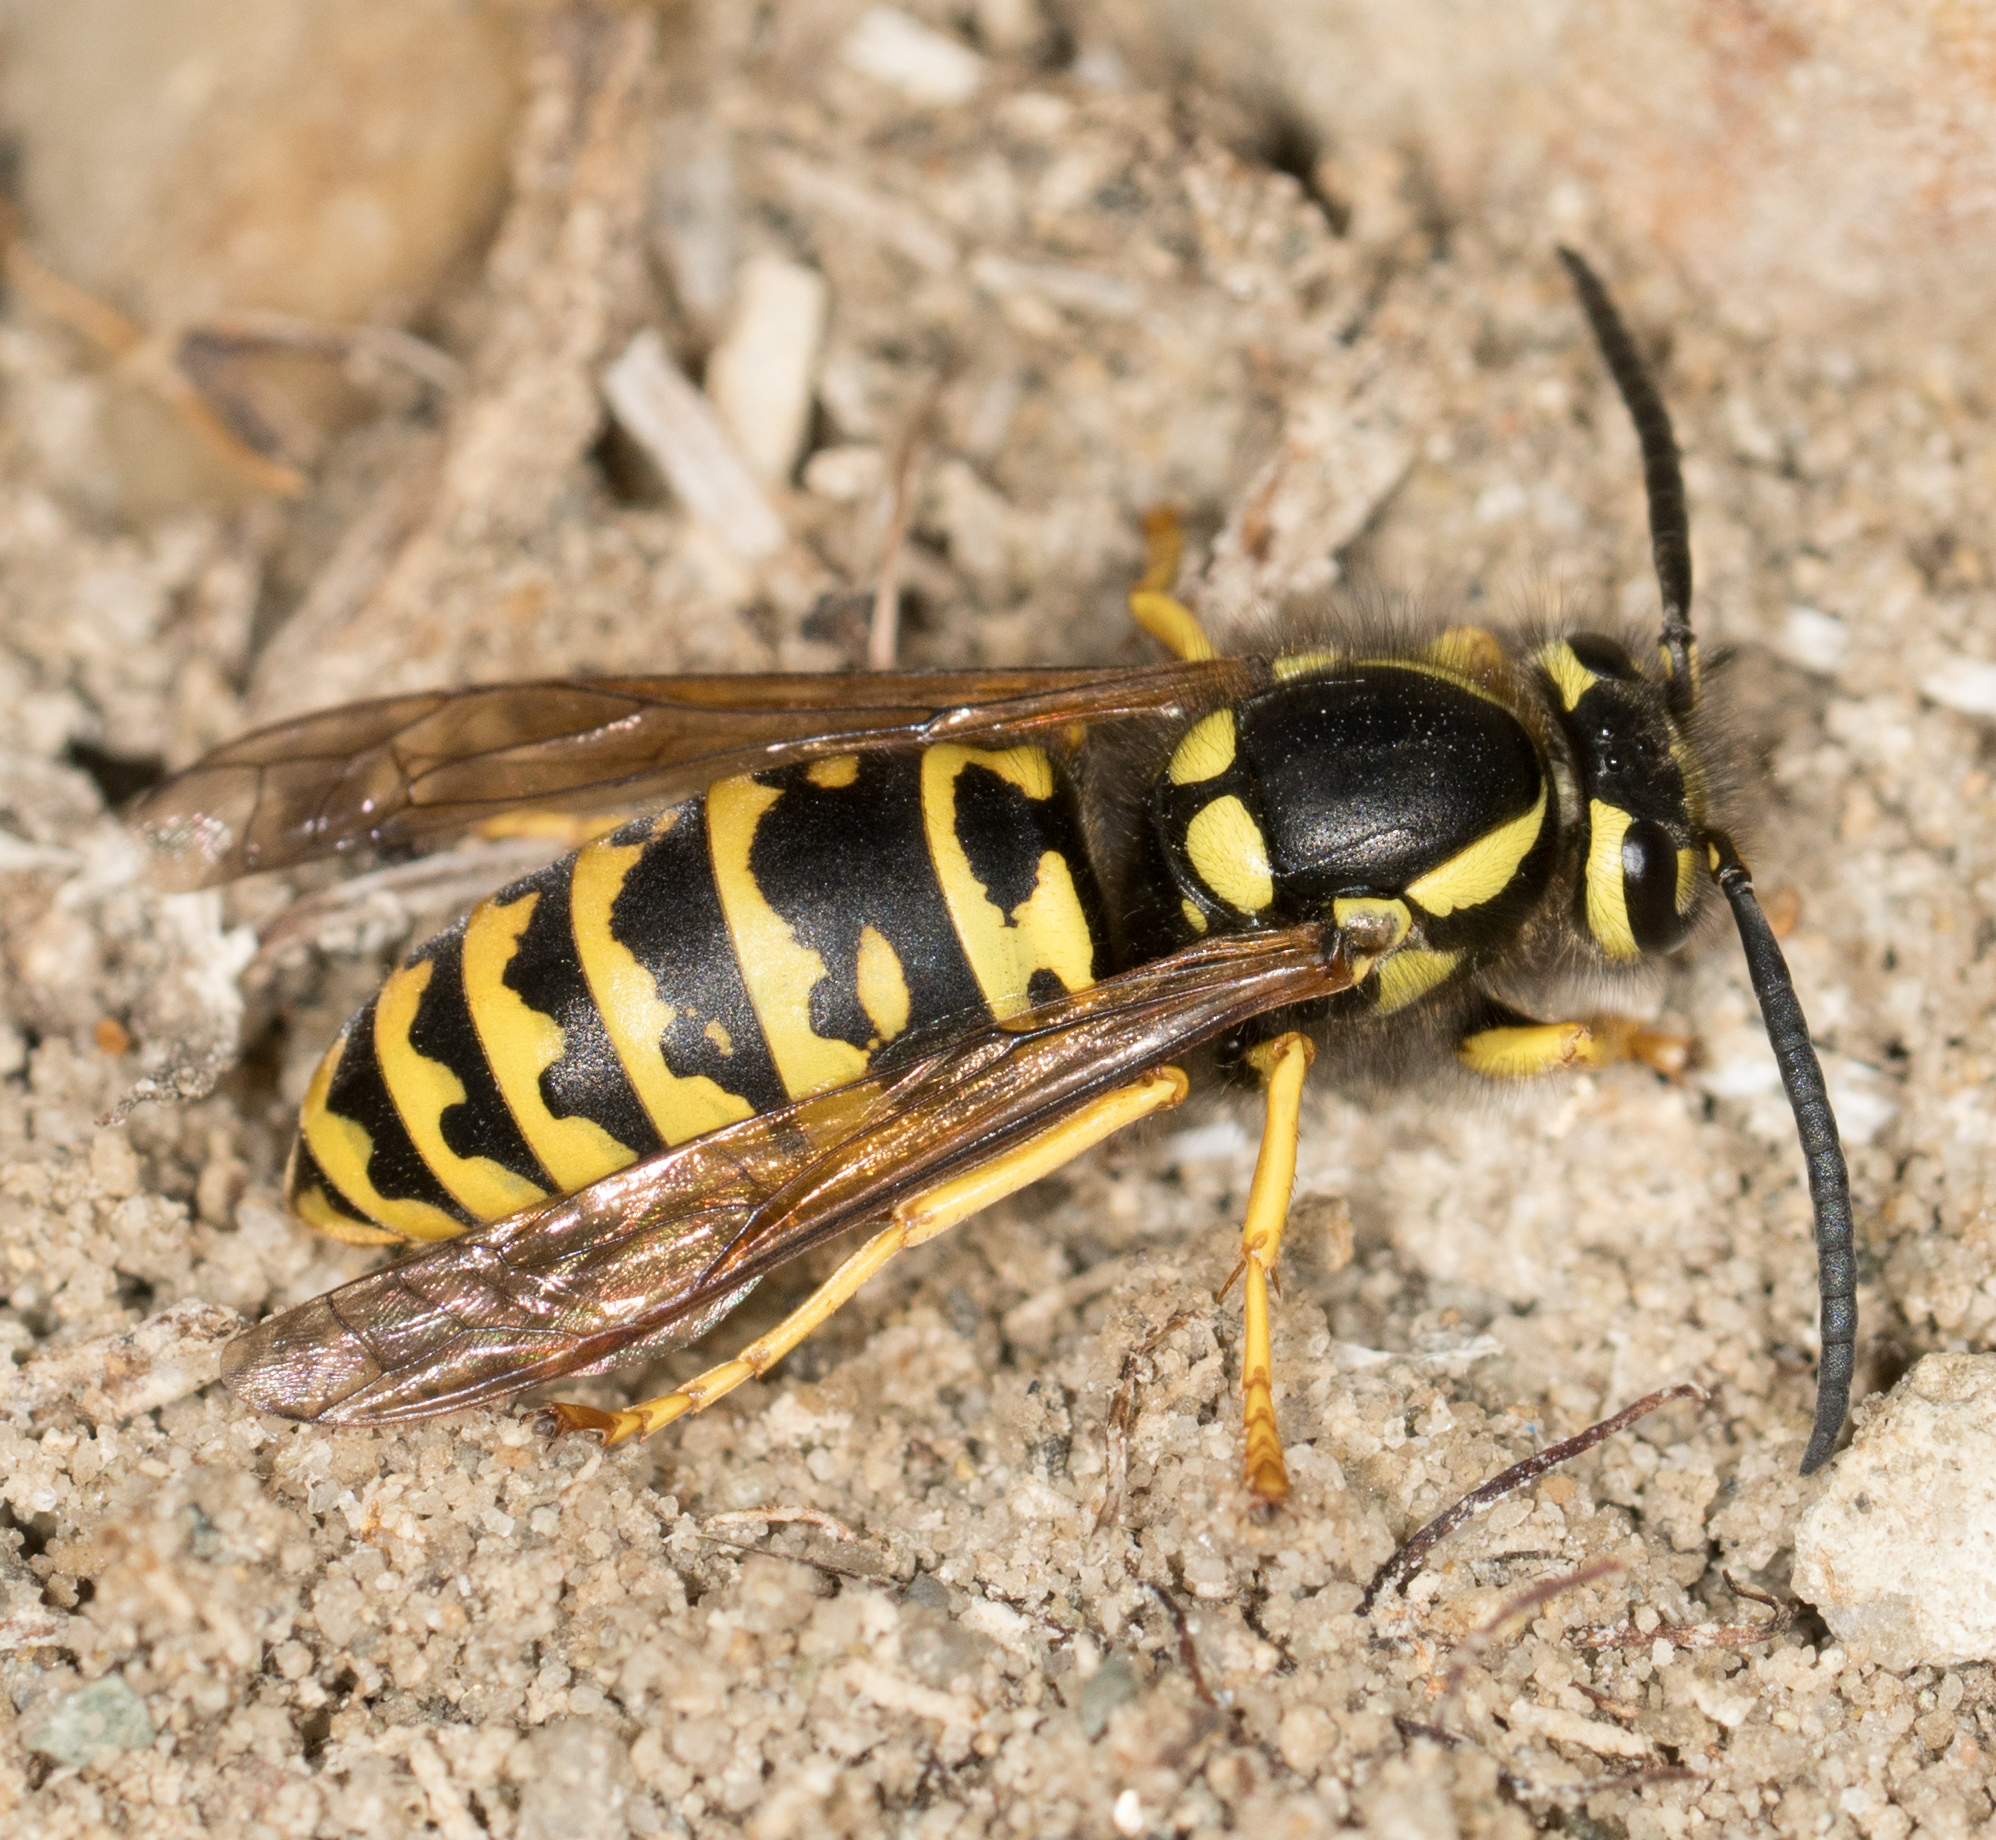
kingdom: Animalia
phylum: Arthropoda
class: Insecta
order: Hymenoptera
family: Vespidae
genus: Vespula
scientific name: Vespula atropilosa
